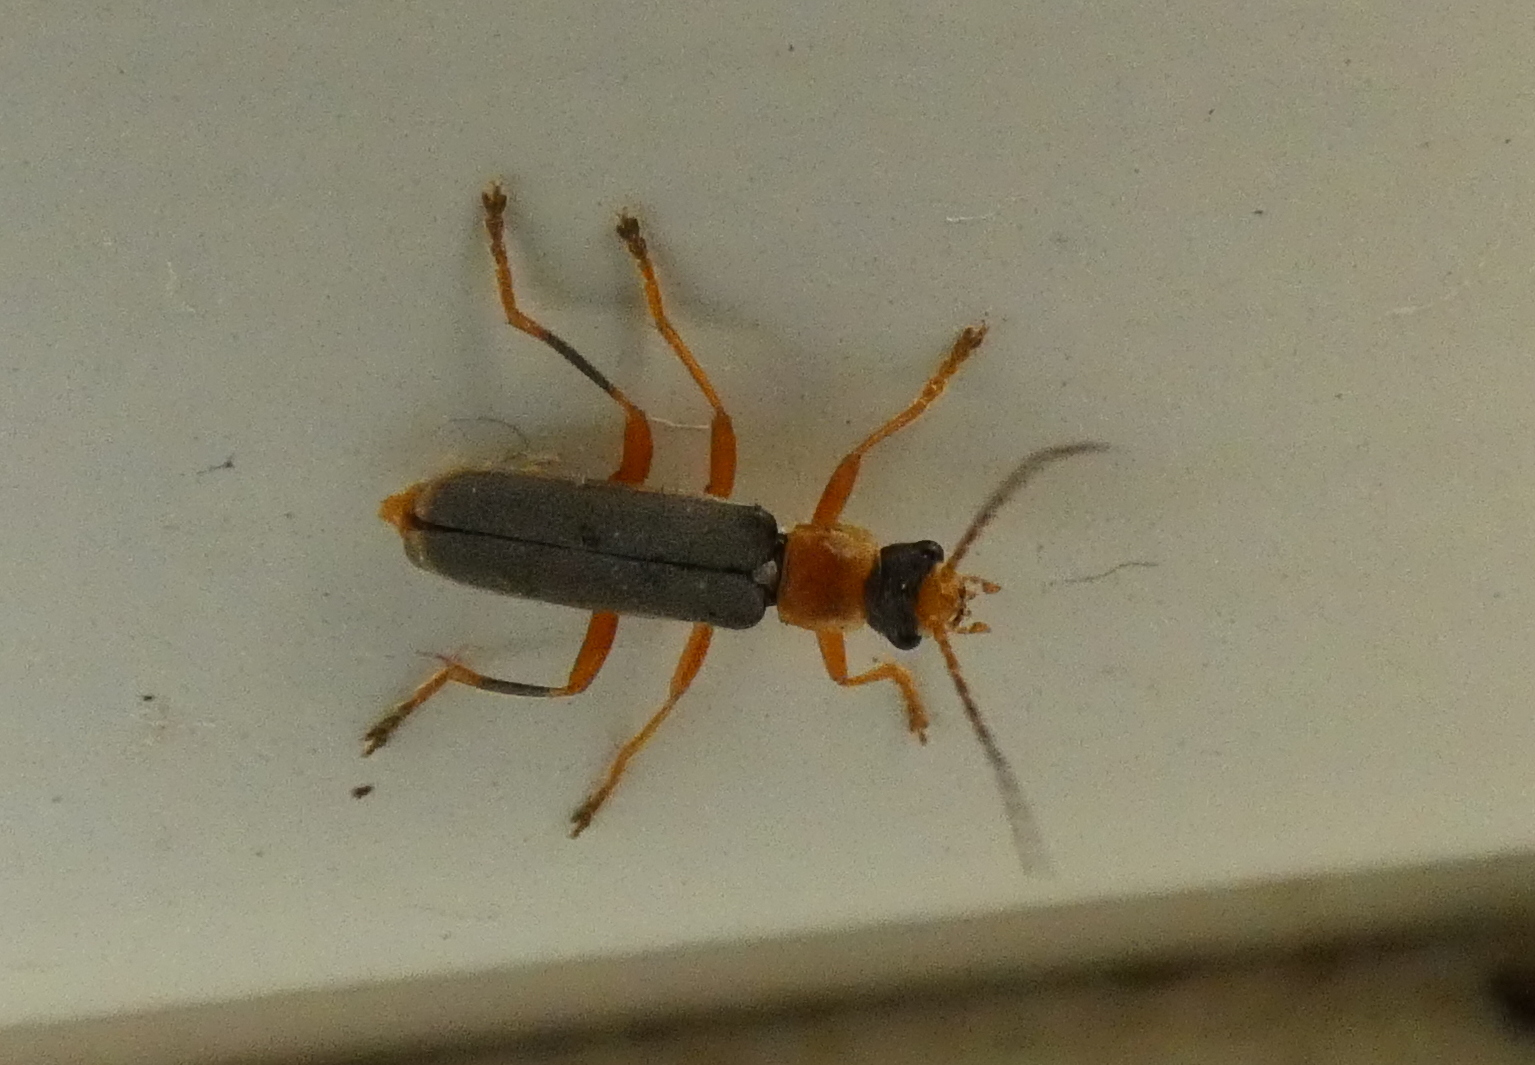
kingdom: Animalia
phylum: Arthropoda
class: Insecta
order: Coleoptera
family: Cantharidae
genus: Cantharis
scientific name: Cantharis lateralis
